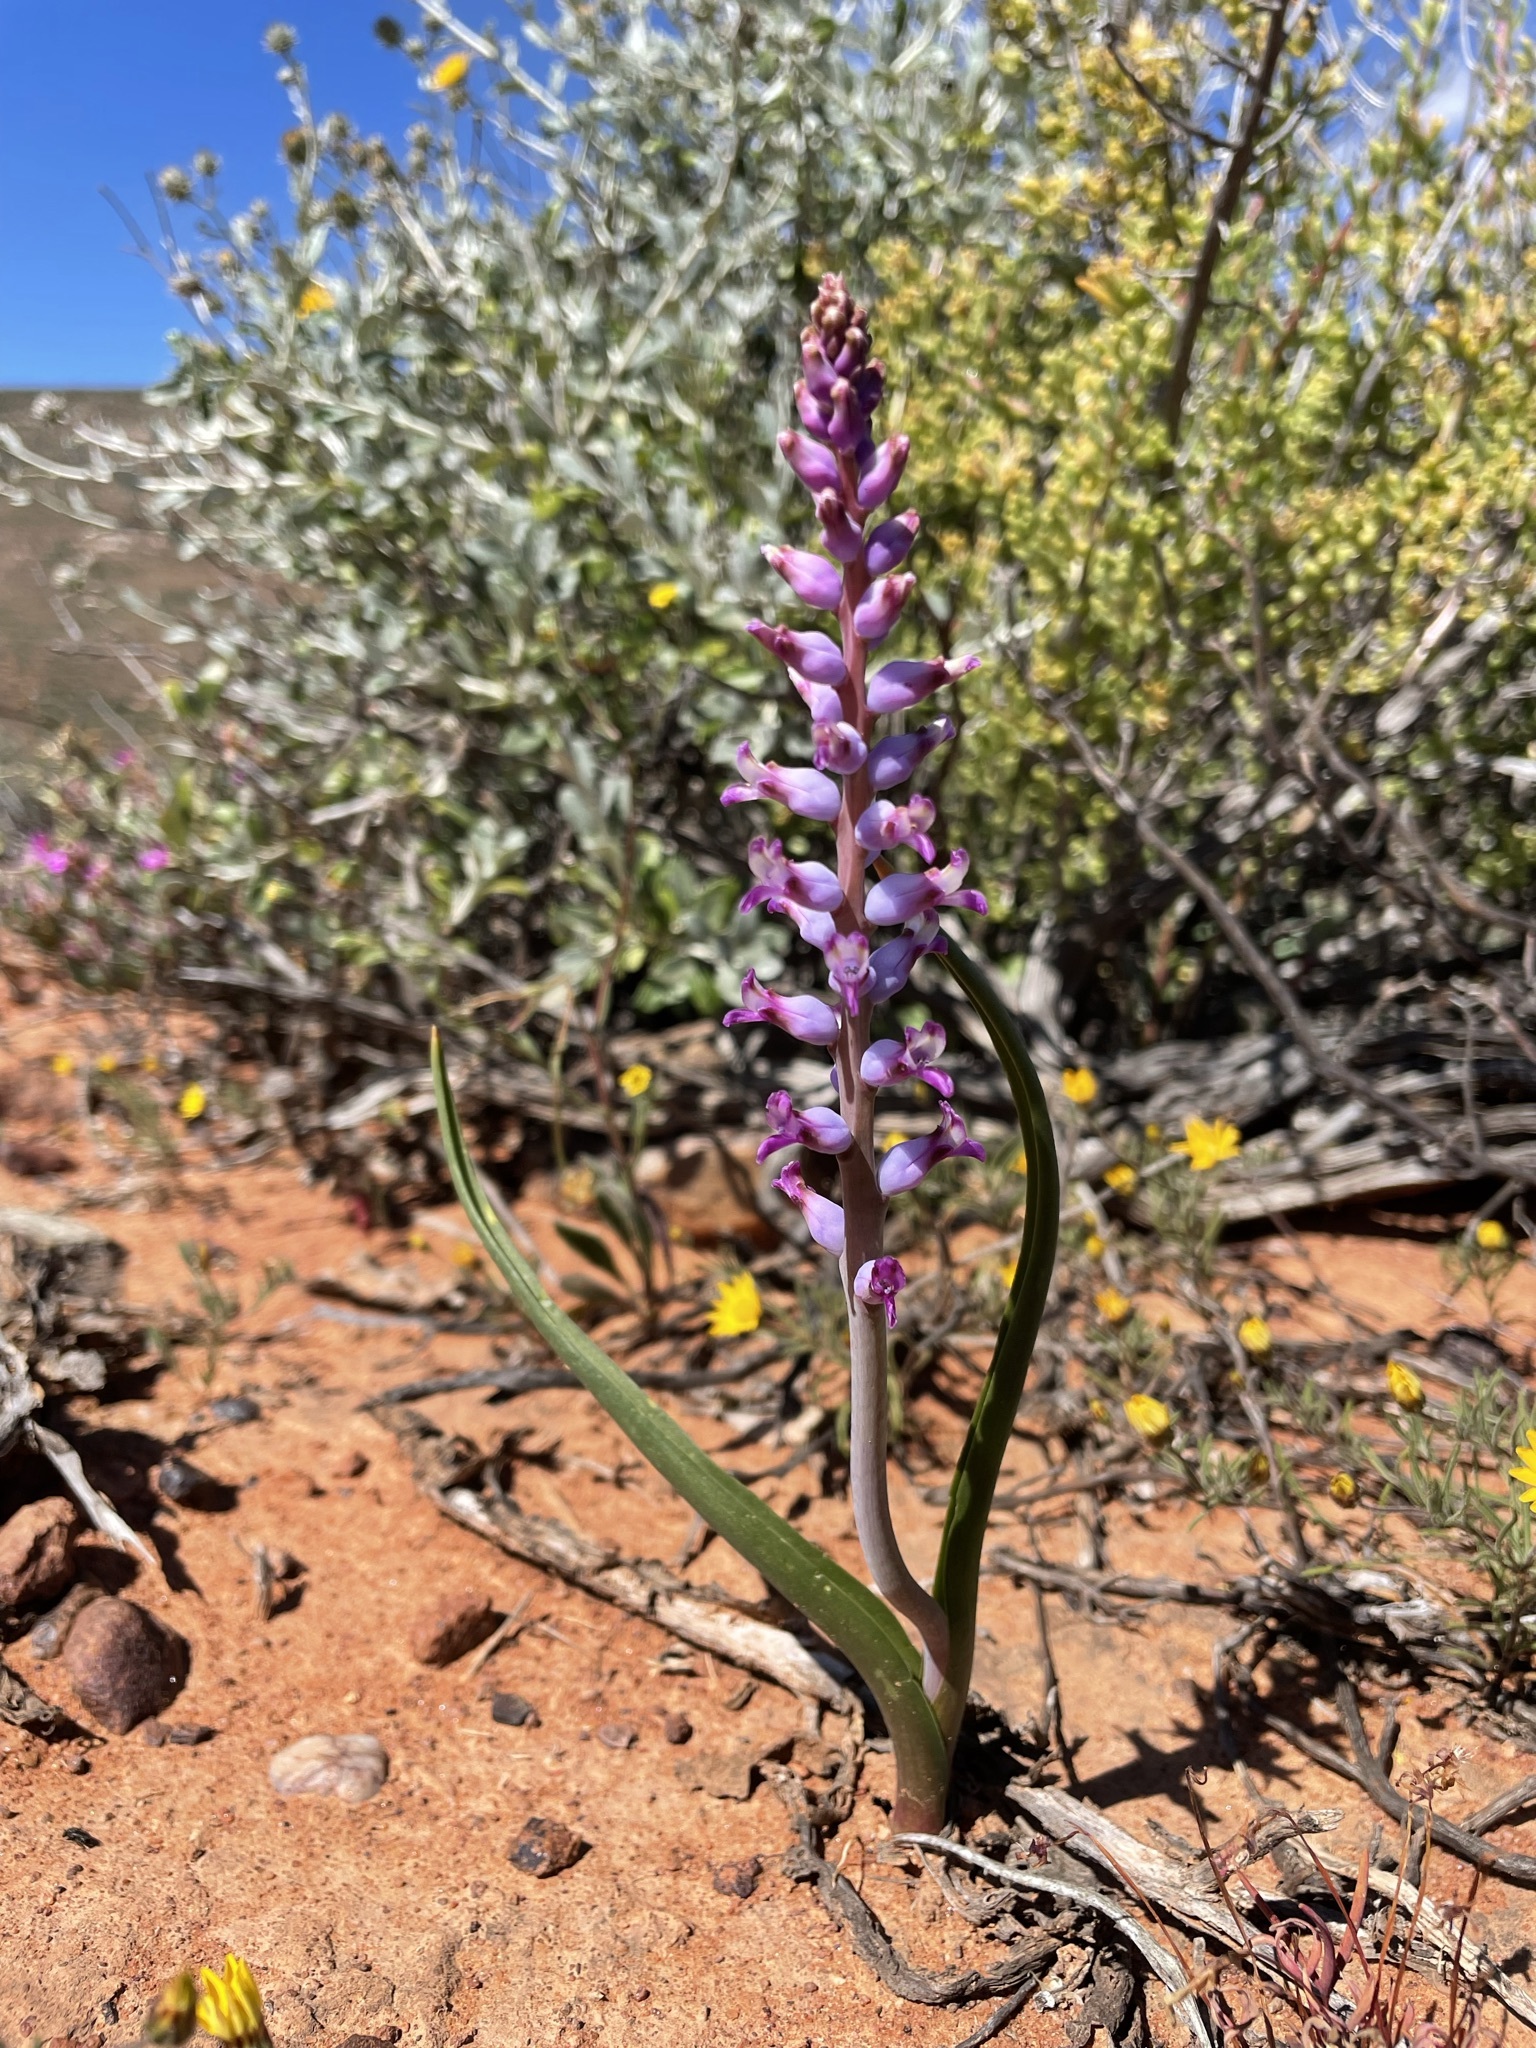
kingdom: Plantae
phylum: Tracheophyta
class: Liliopsida
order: Asparagales
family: Asparagaceae
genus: Lachenalia
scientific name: Lachenalia namaquensis
